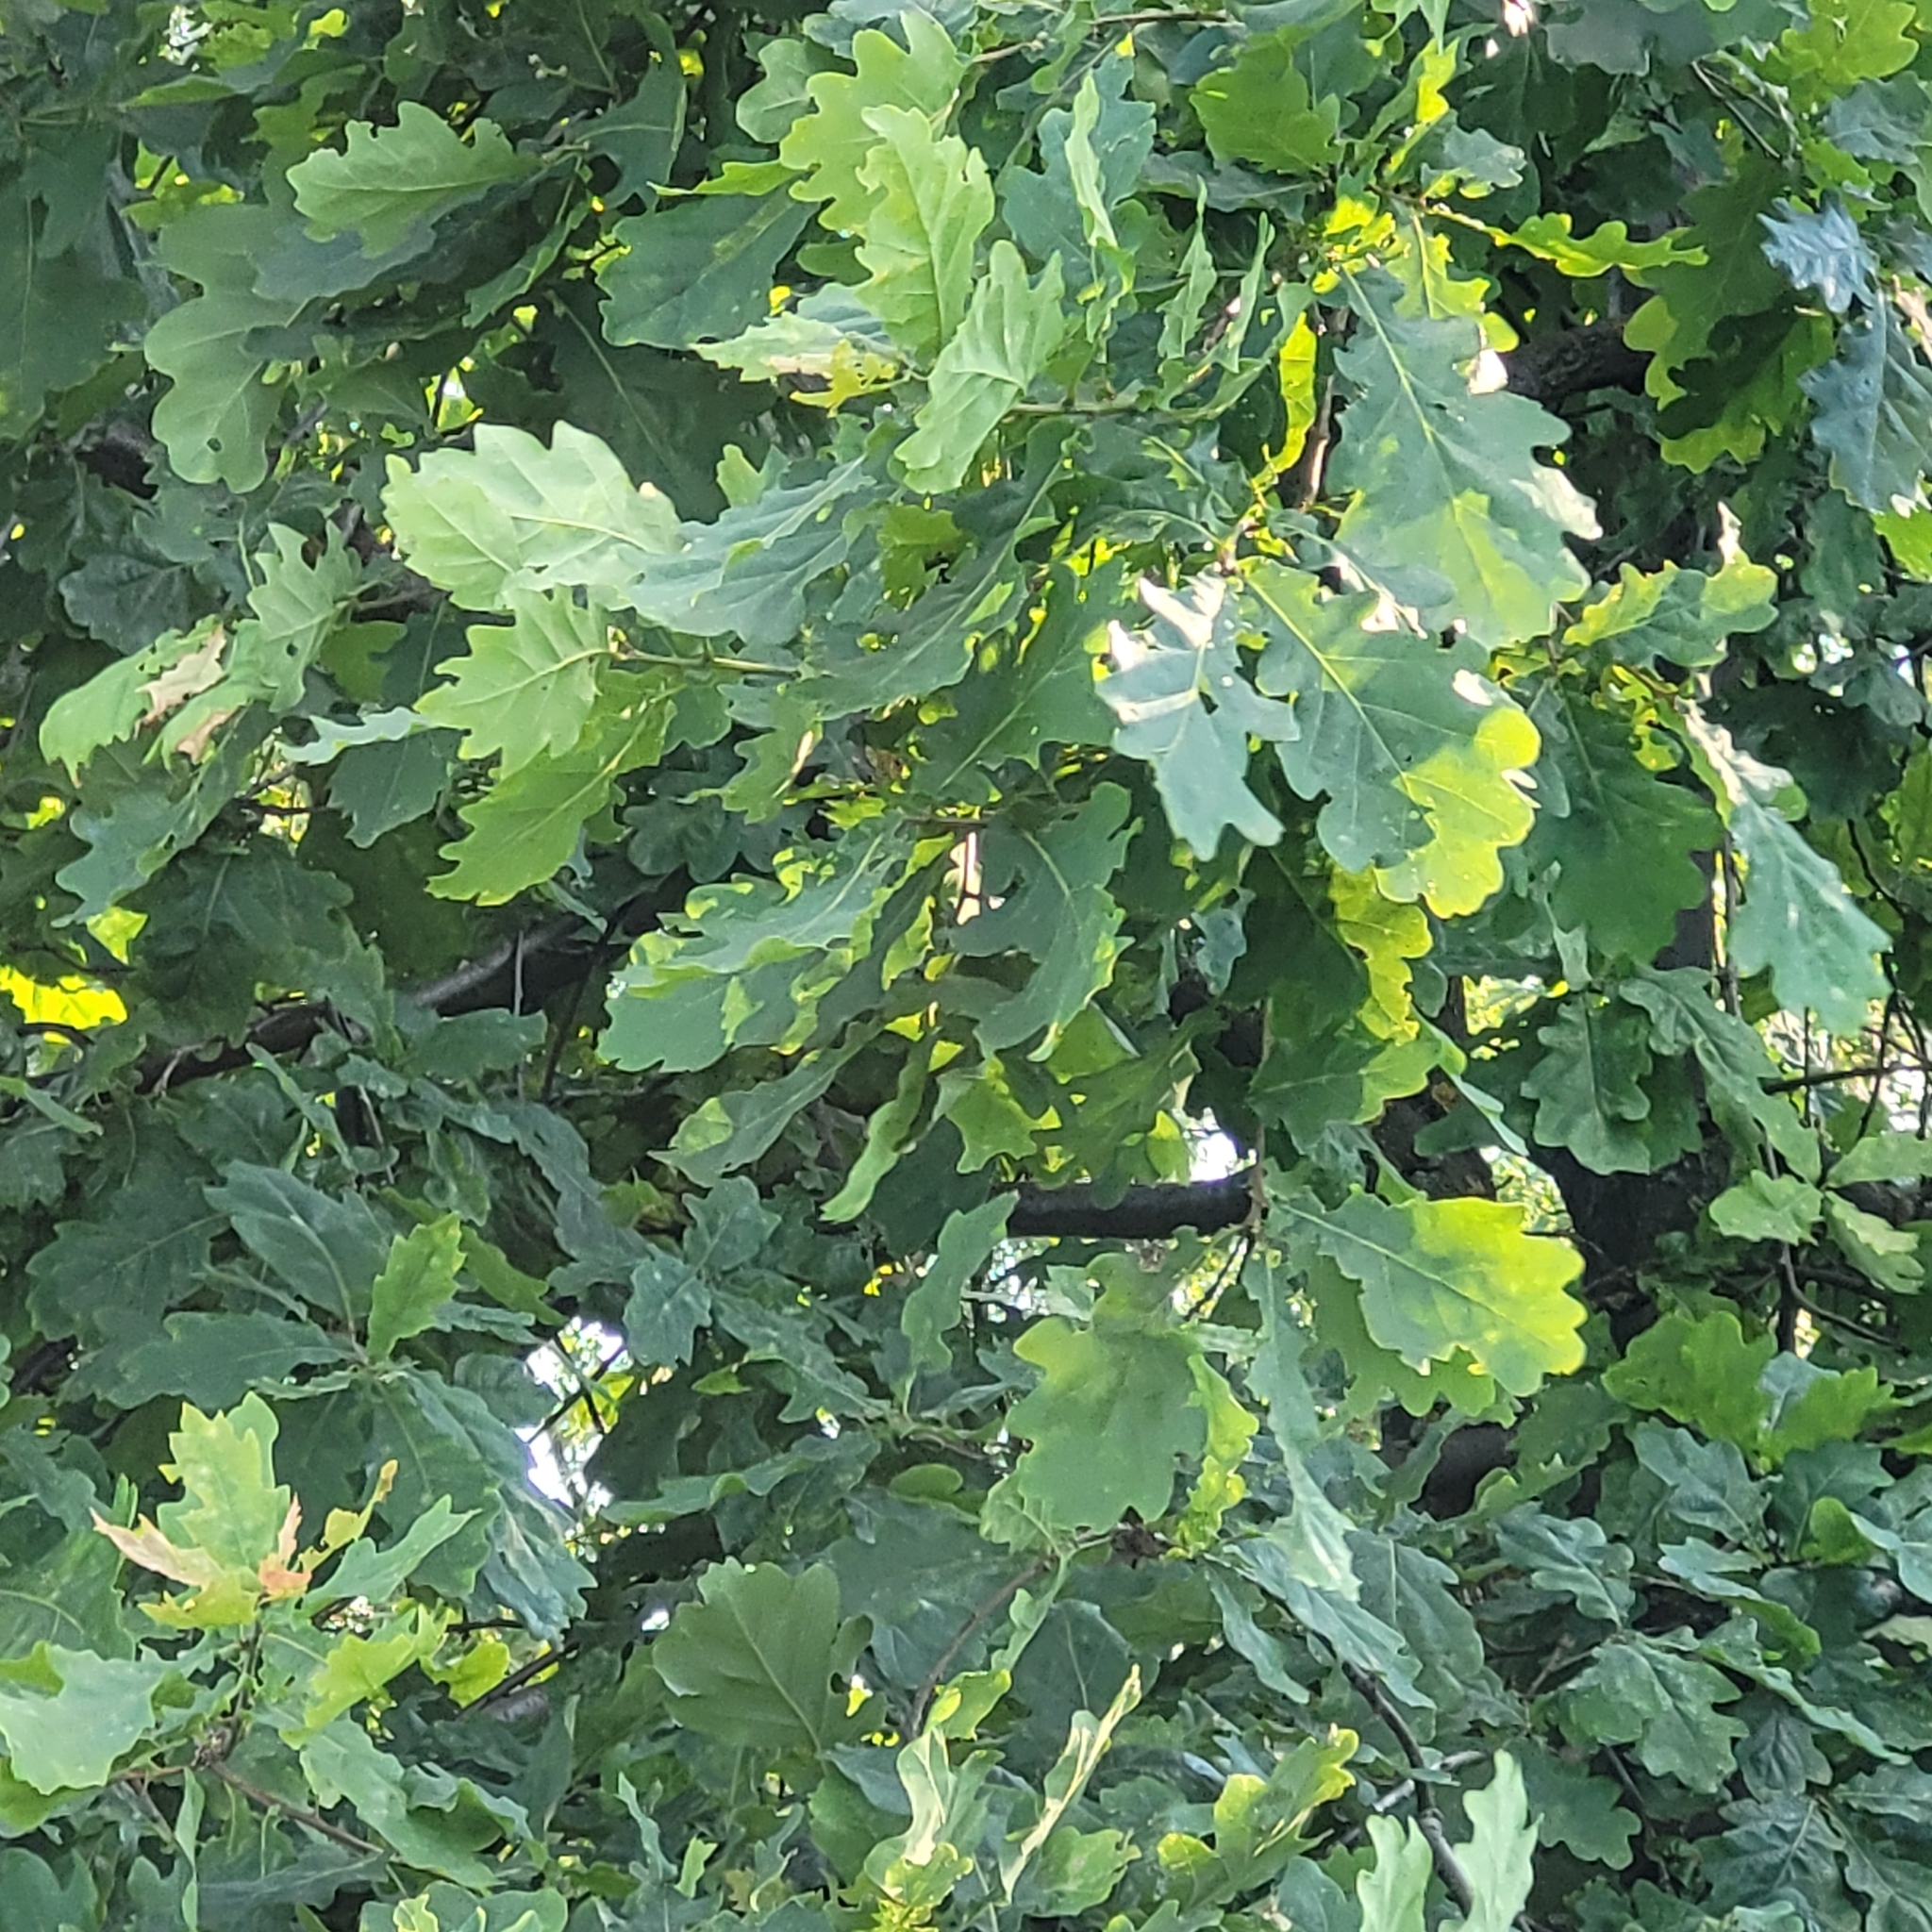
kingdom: Plantae
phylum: Tracheophyta
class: Magnoliopsida
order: Fagales
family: Fagaceae
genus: Quercus
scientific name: Quercus robur
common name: Pedunculate oak
